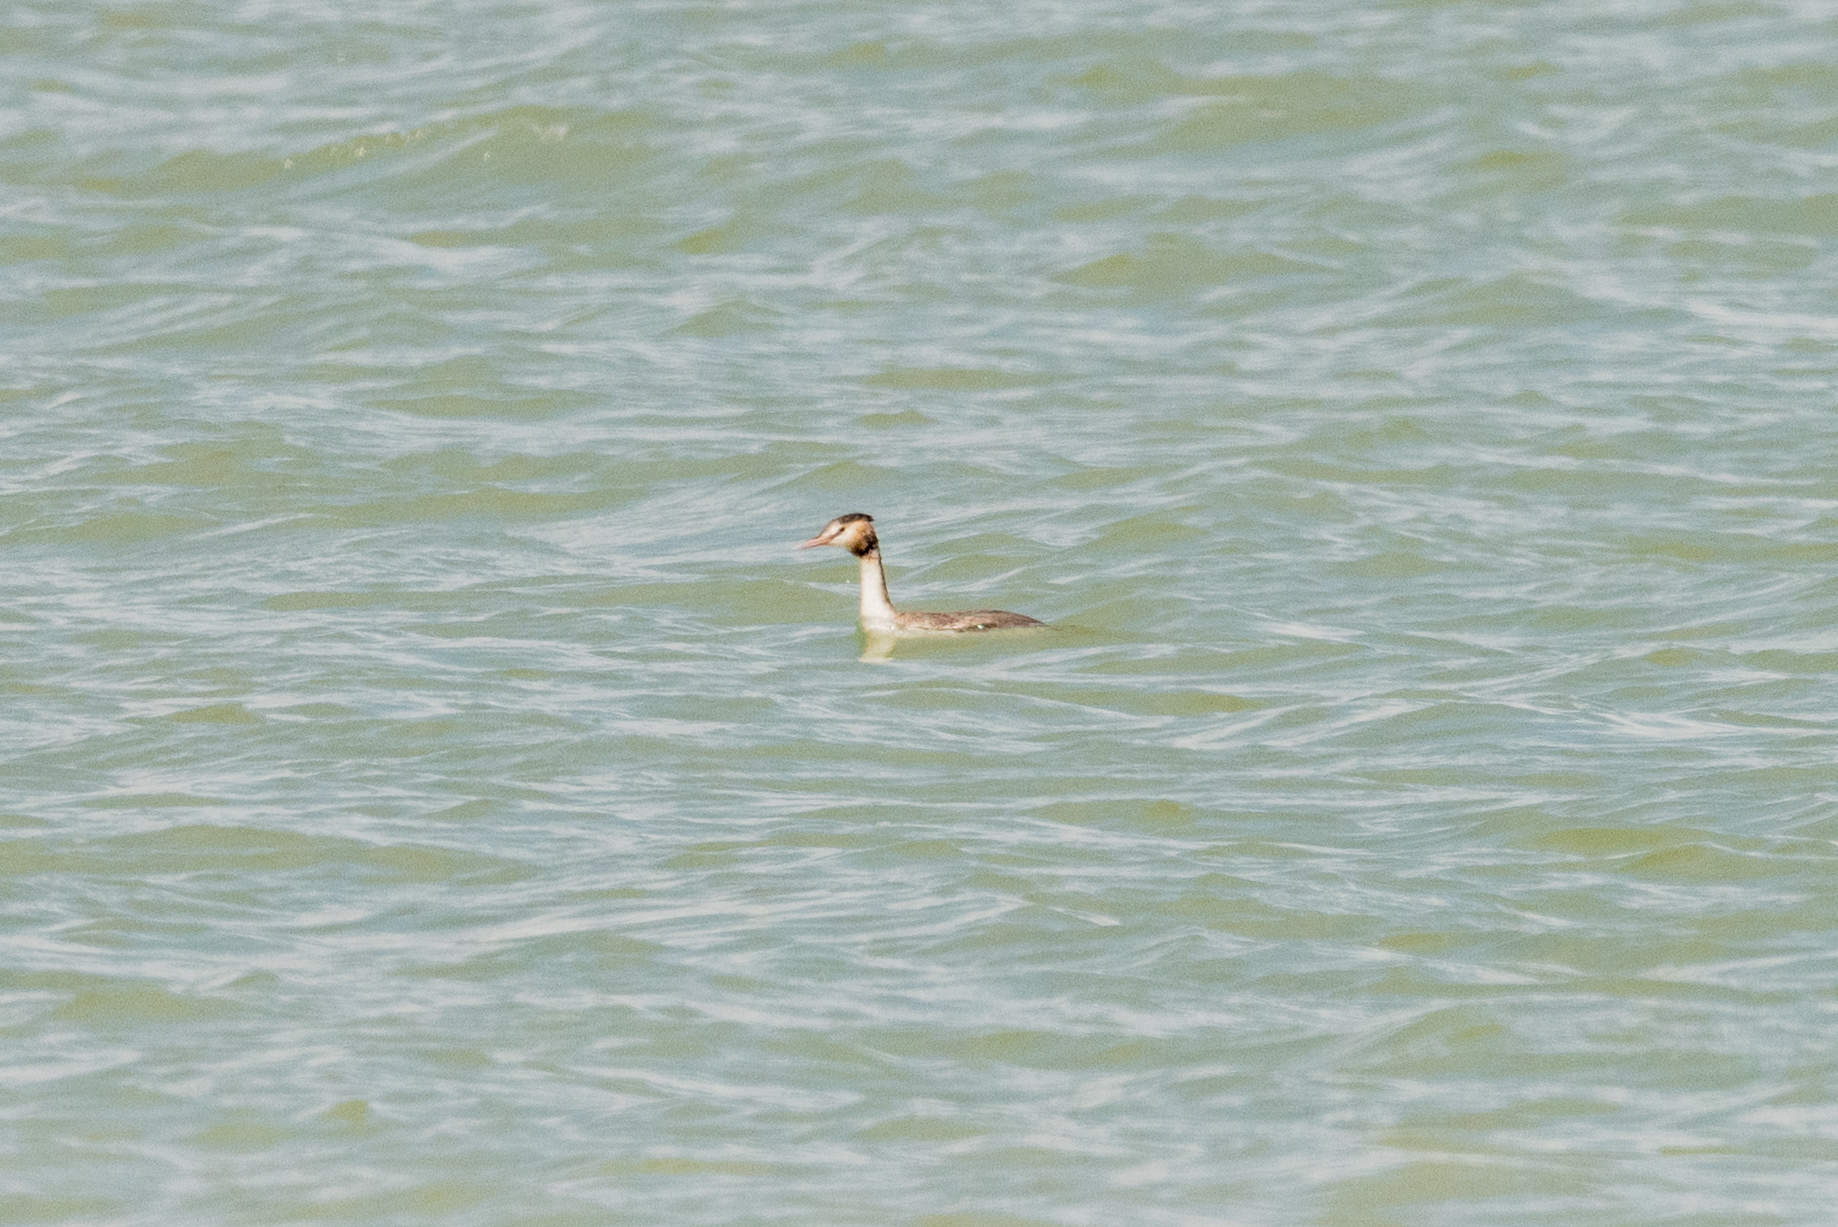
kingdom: Animalia
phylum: Chordata
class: Aves
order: Podicipediformes
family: Podicipedidae
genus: Podiceps
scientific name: Podiceps cristatus
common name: Great crested grebe
